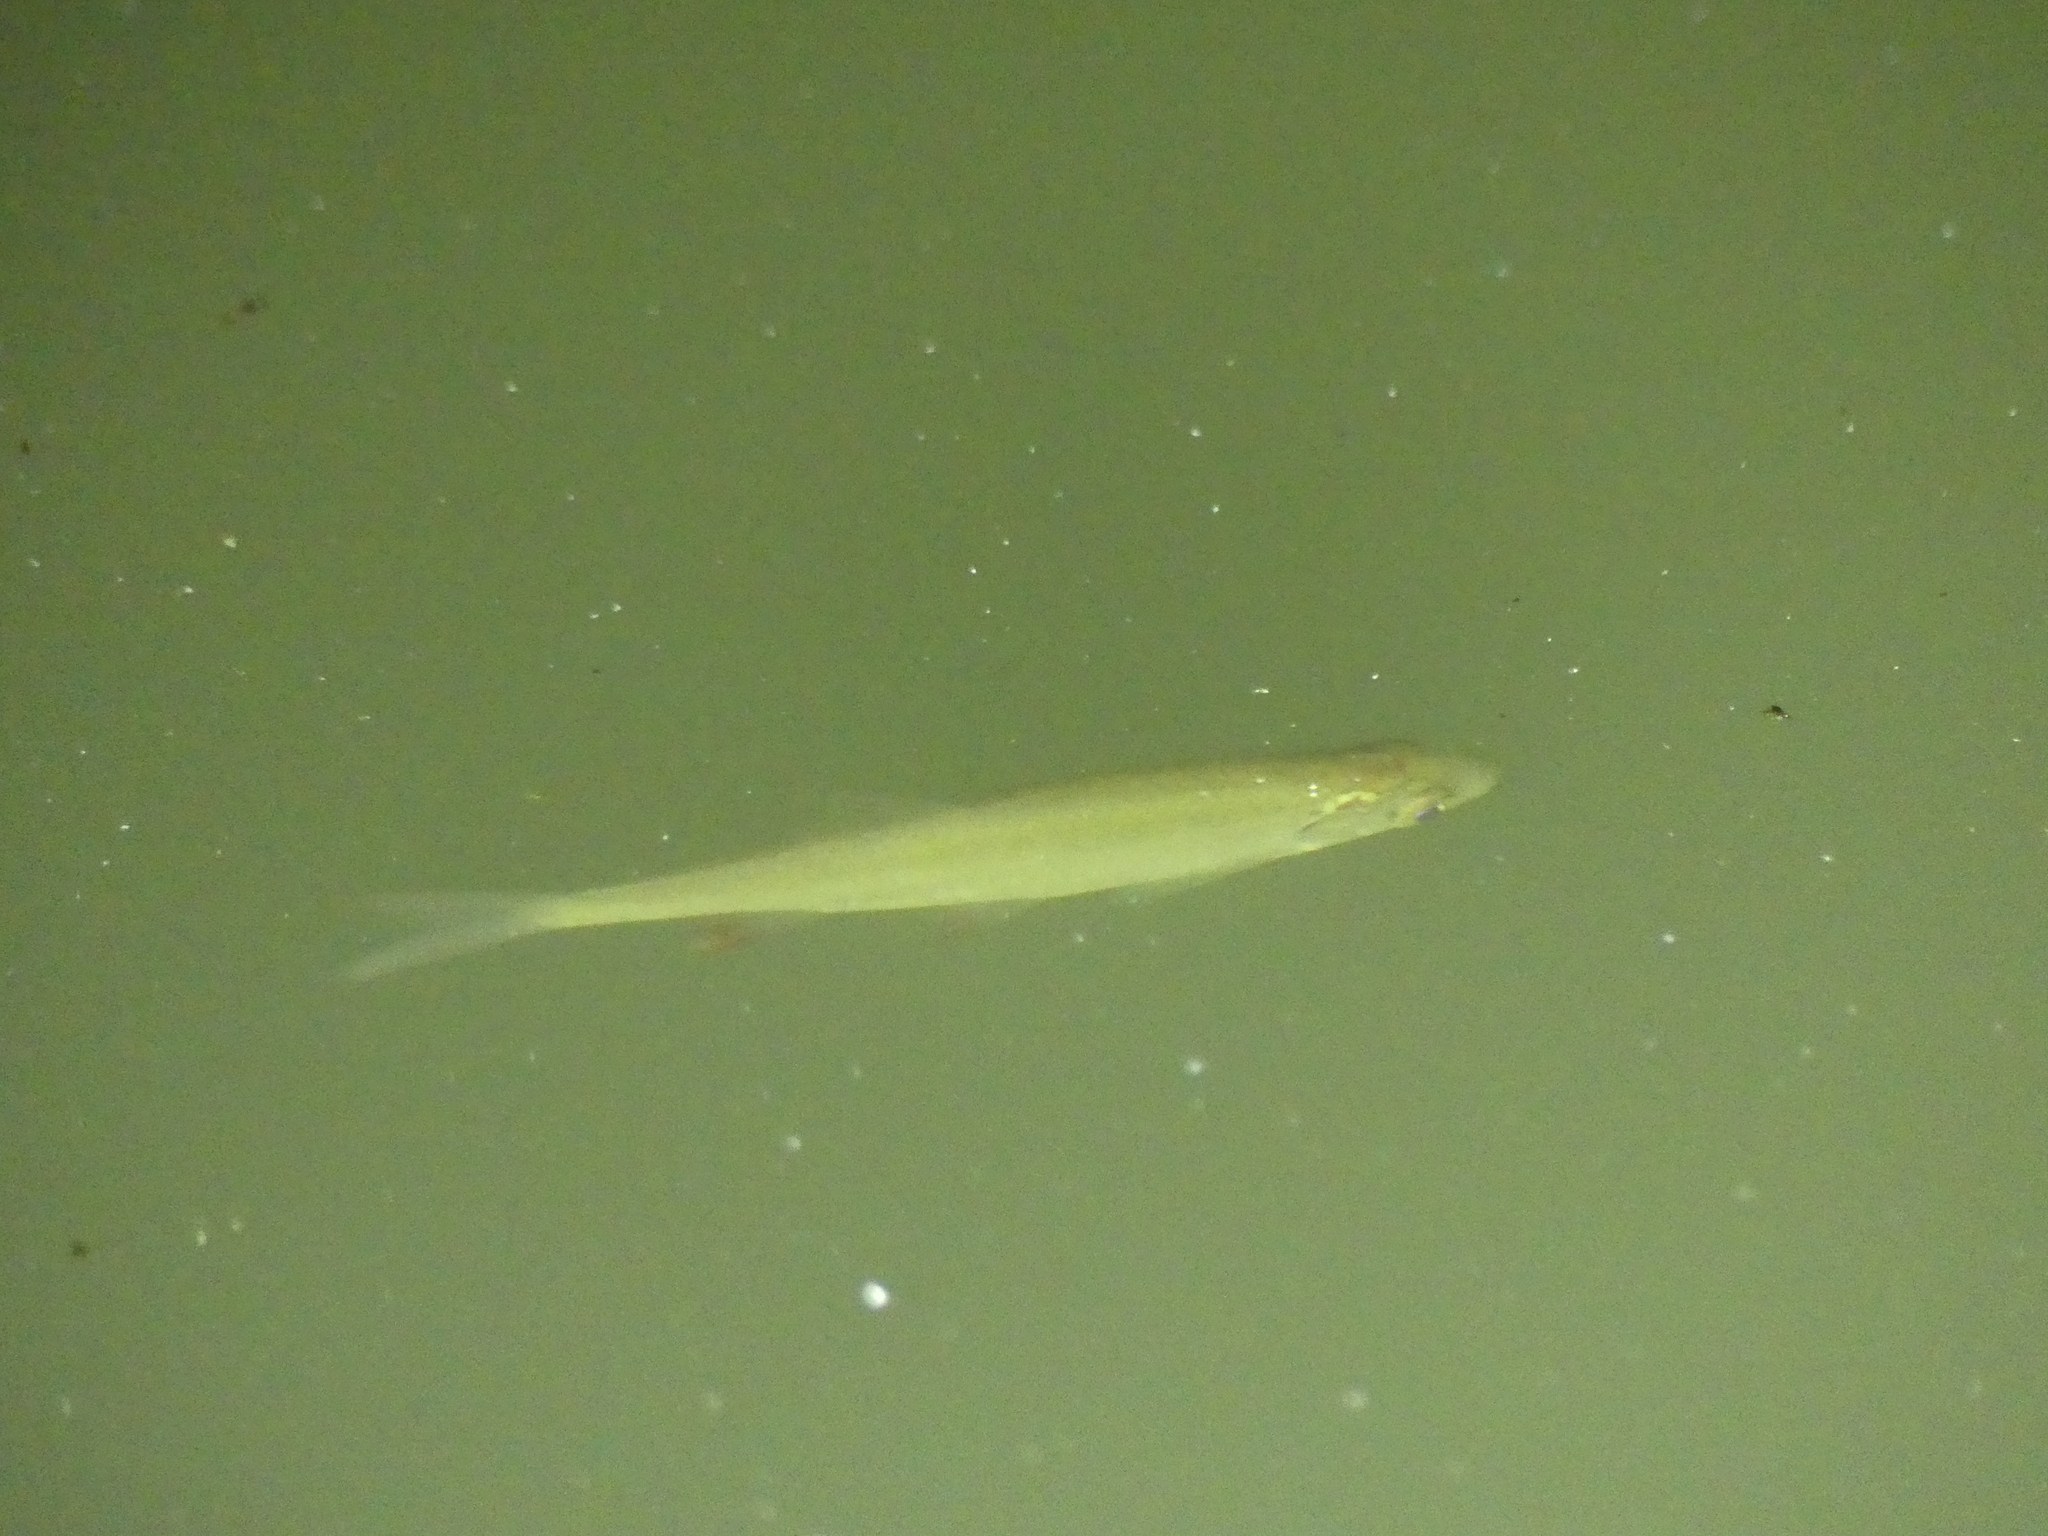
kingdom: Animalia
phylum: Chordata
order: Cypriniformes
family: Cyprinidae
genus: Scardinius
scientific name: Scardinius erythrophthalmus
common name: Rudd
